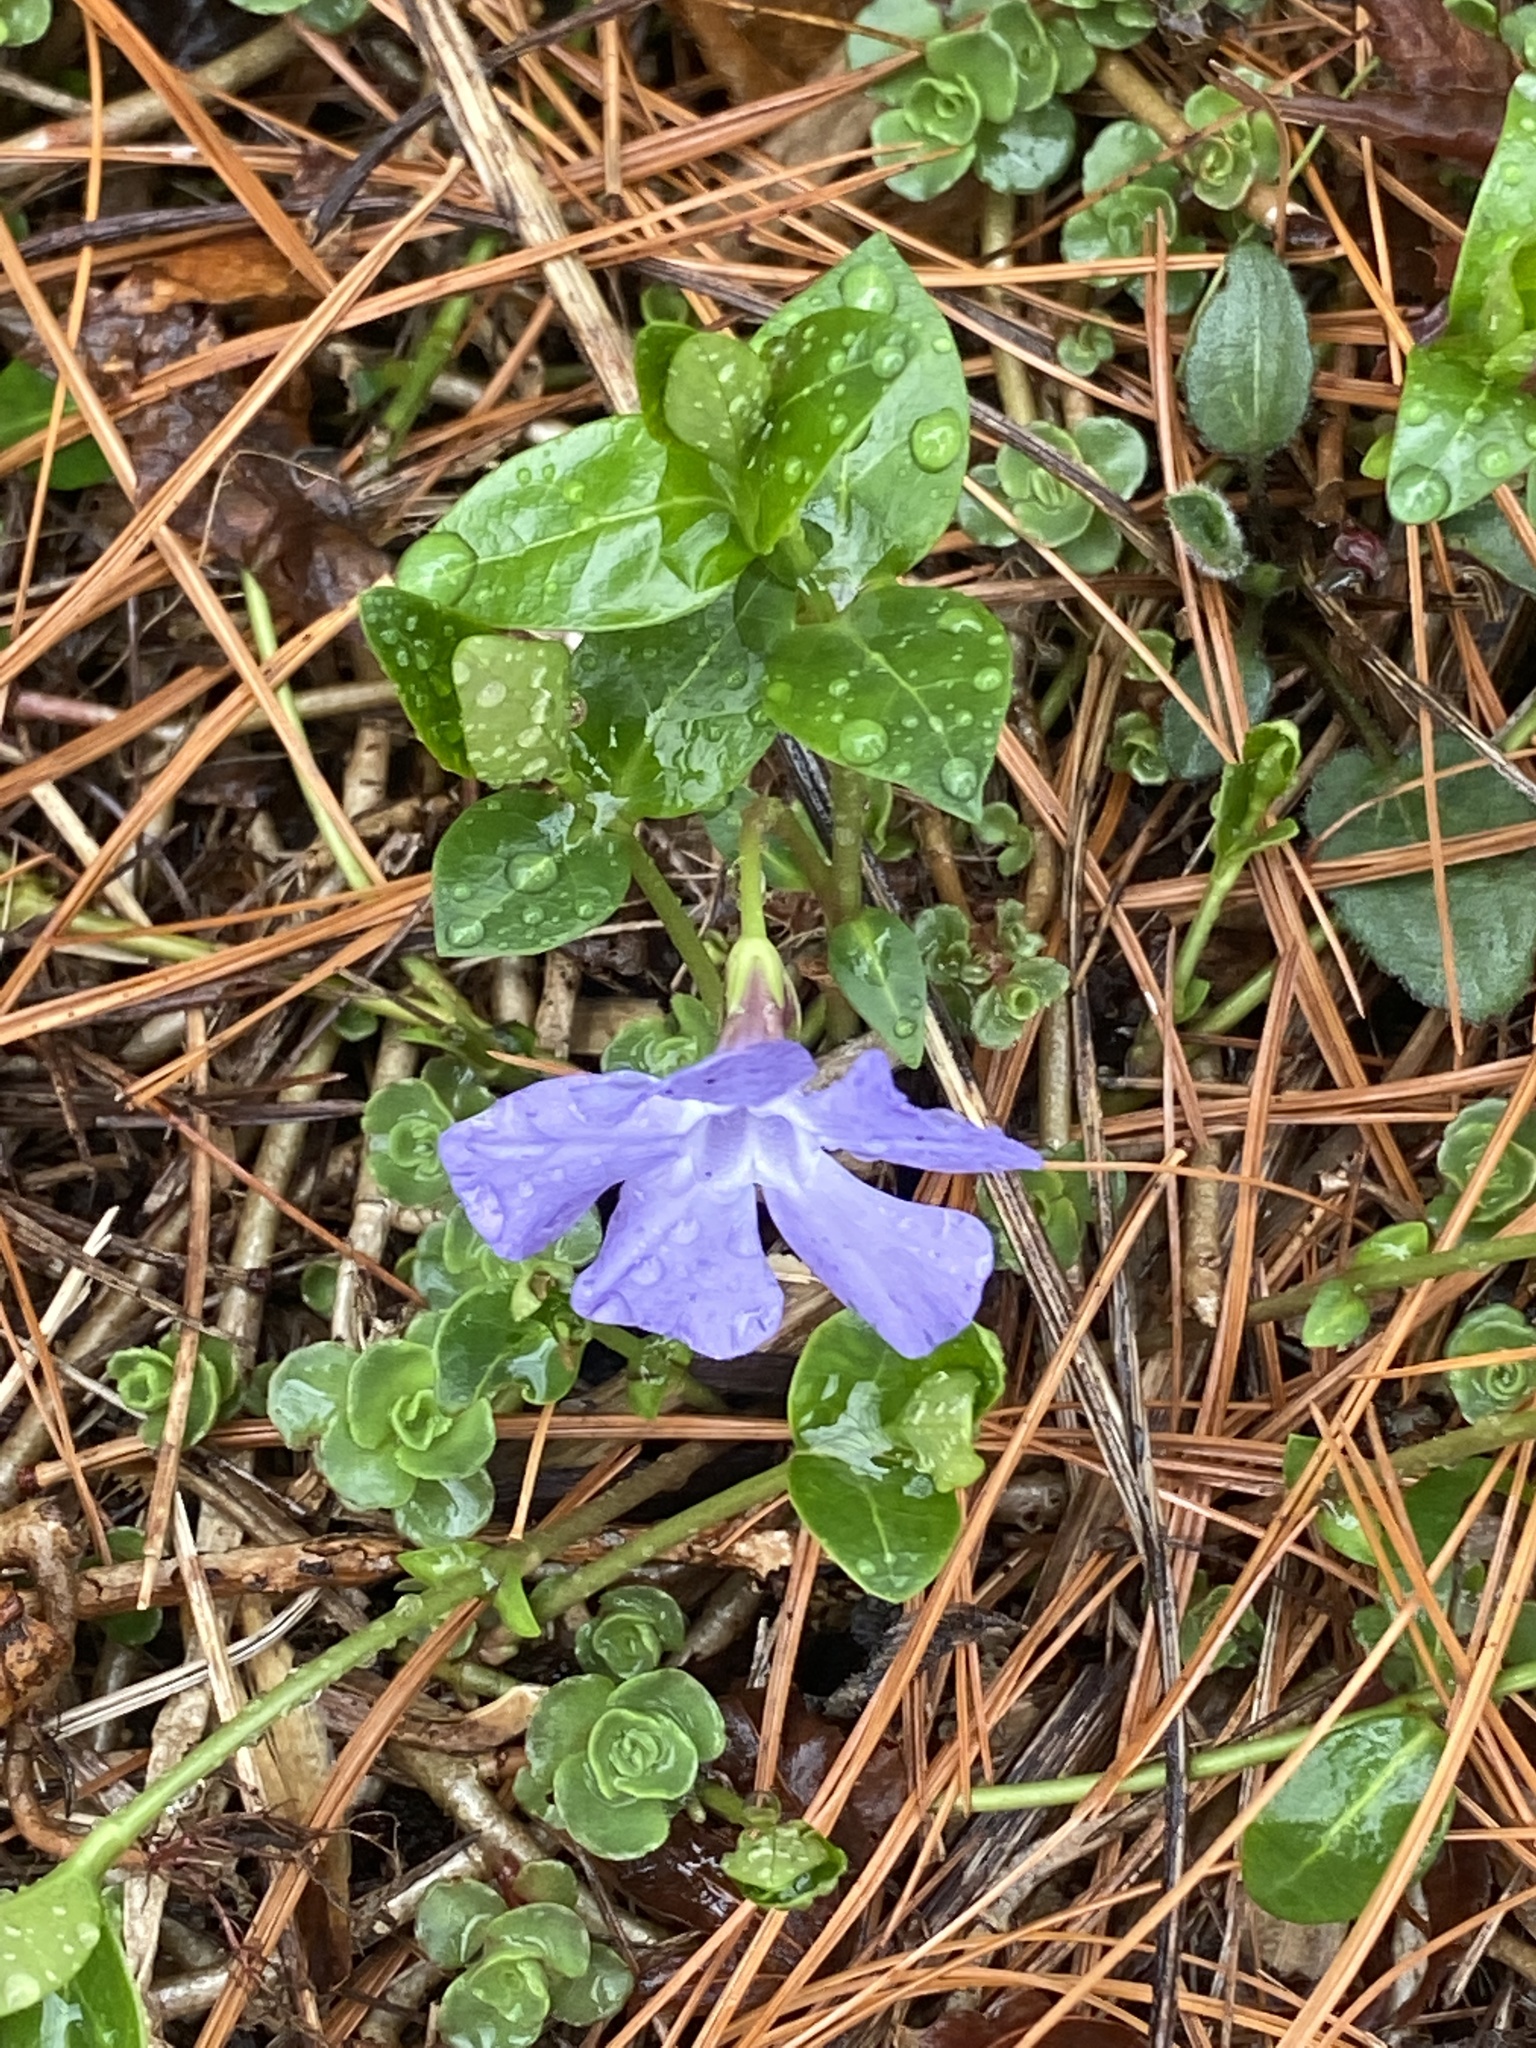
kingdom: Plantae
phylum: Tracheophyta
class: Magnoliopsida
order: Gentianales
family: Apocynaceae
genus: Vinca
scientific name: Vinca minor
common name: Lesser periwinkle
